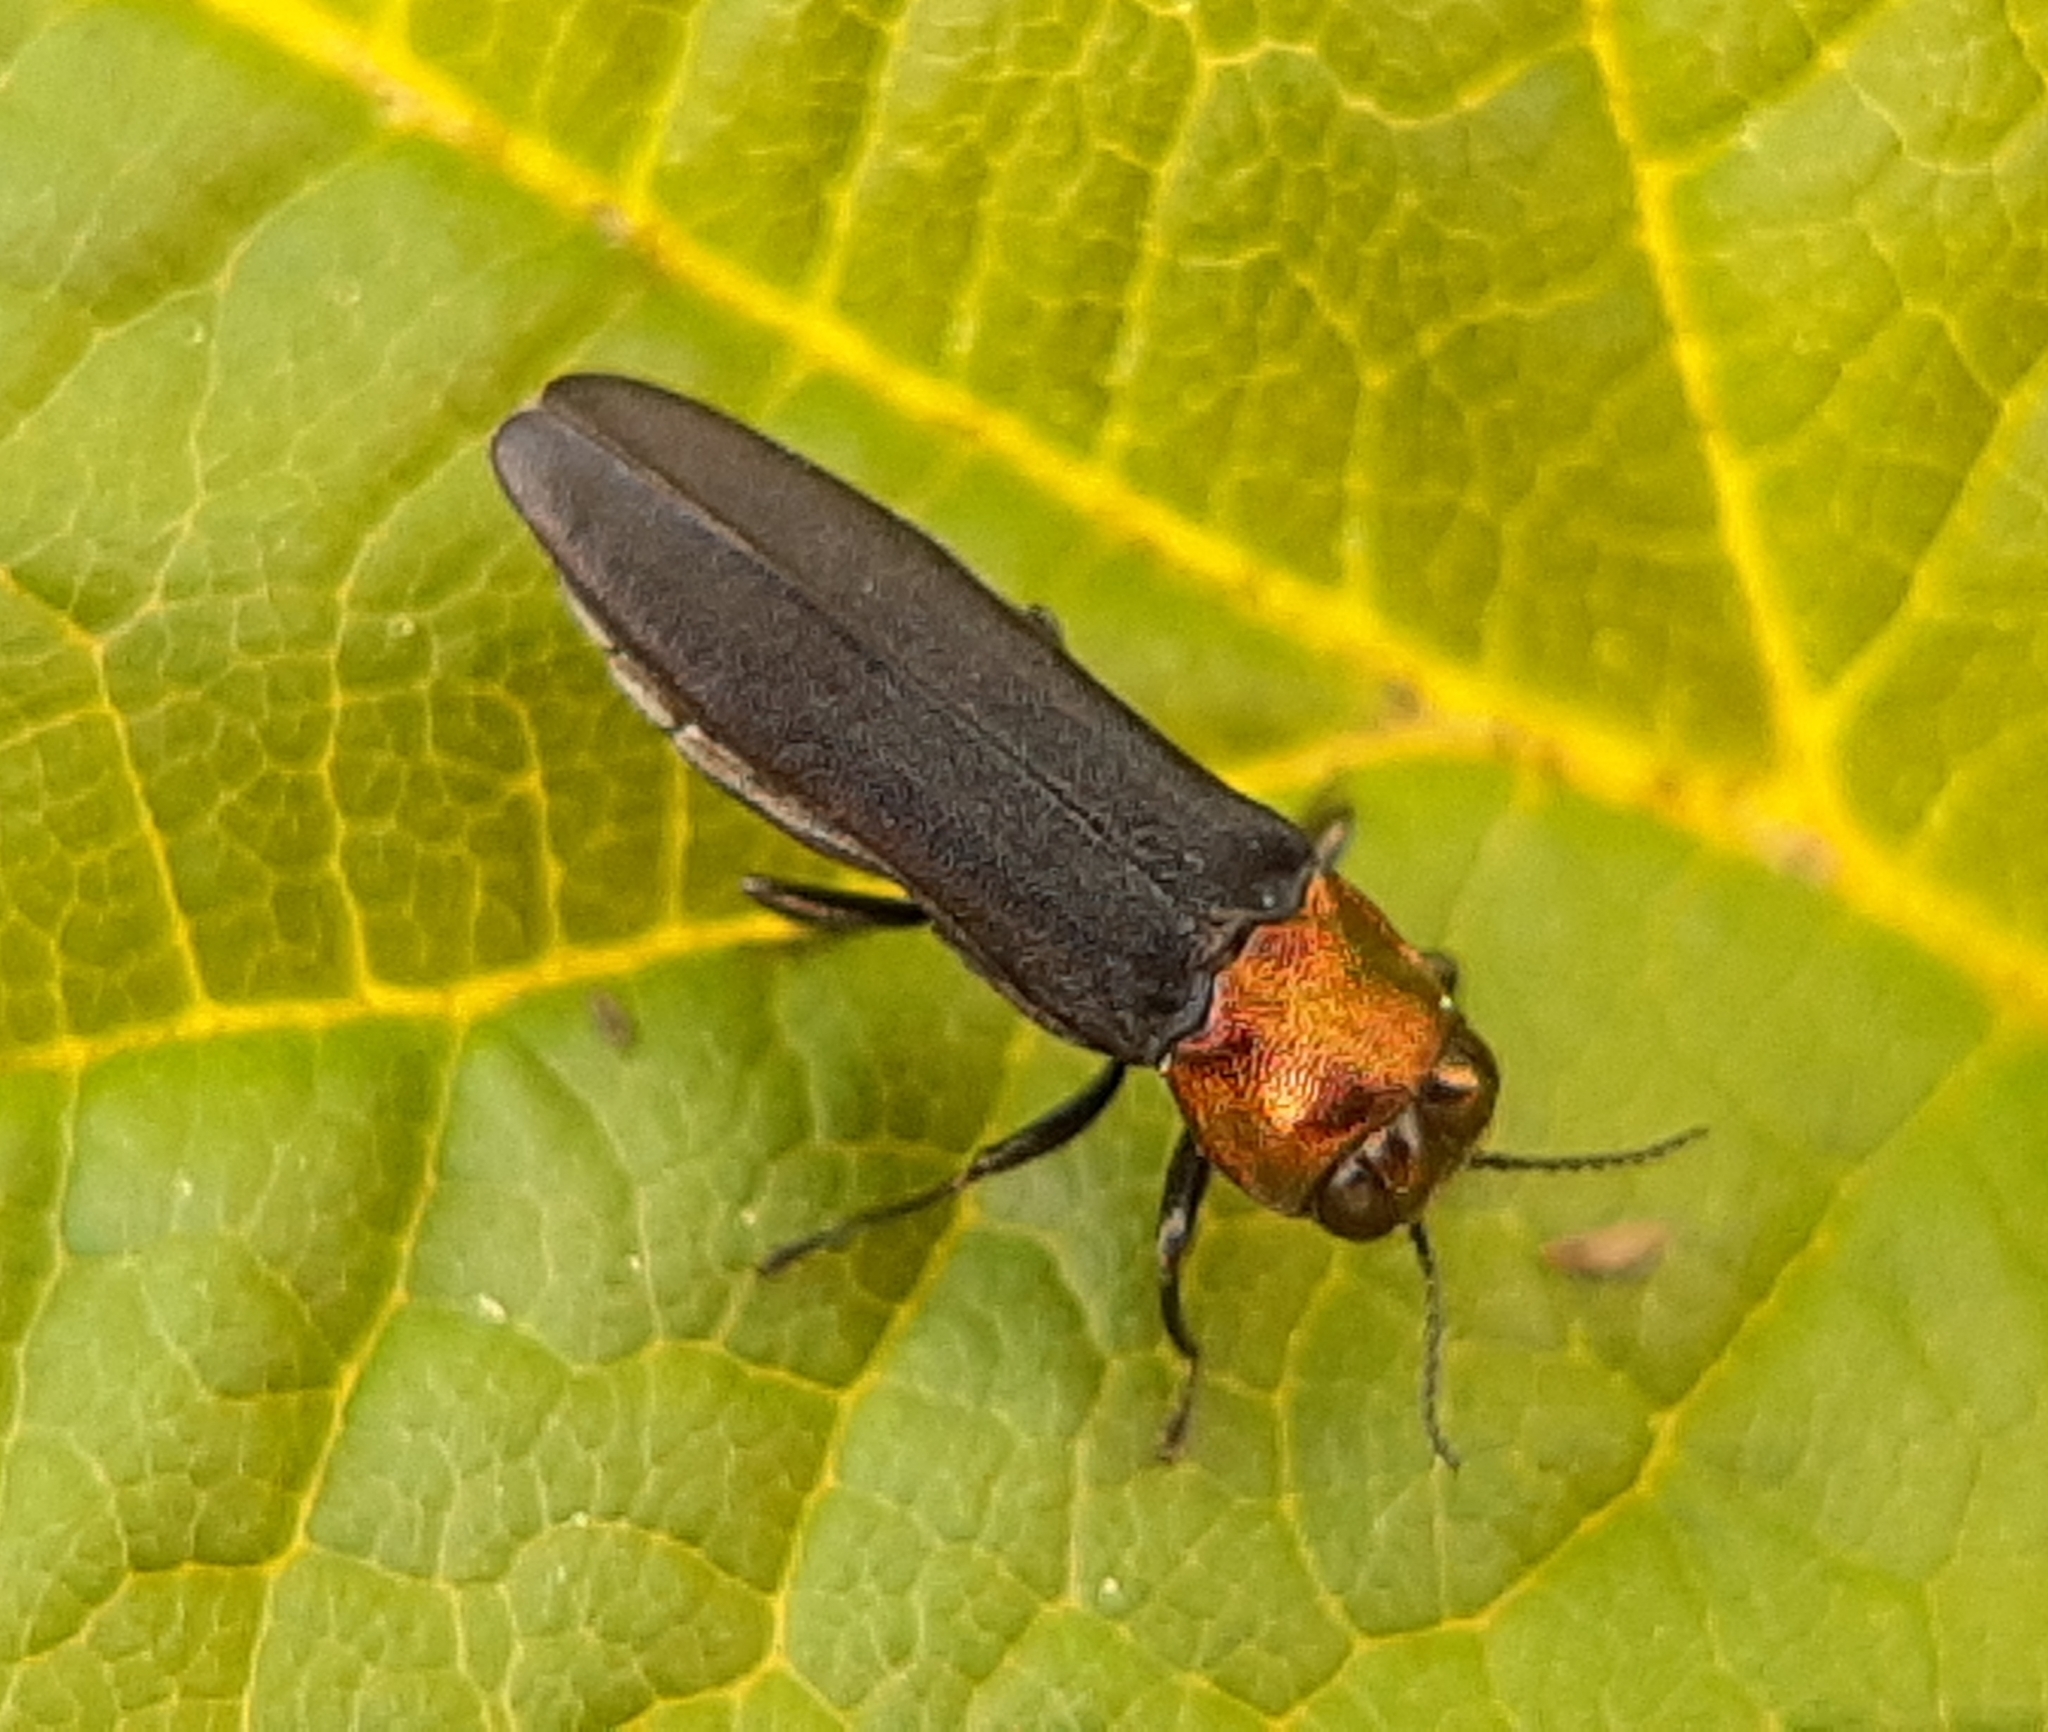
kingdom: Animalia
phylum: Arthropoda
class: Insecta
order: Coleoptera
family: Buprestidae
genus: Agrilus
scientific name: Agrilus ruficollis
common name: Red-necked cane borer beetle
